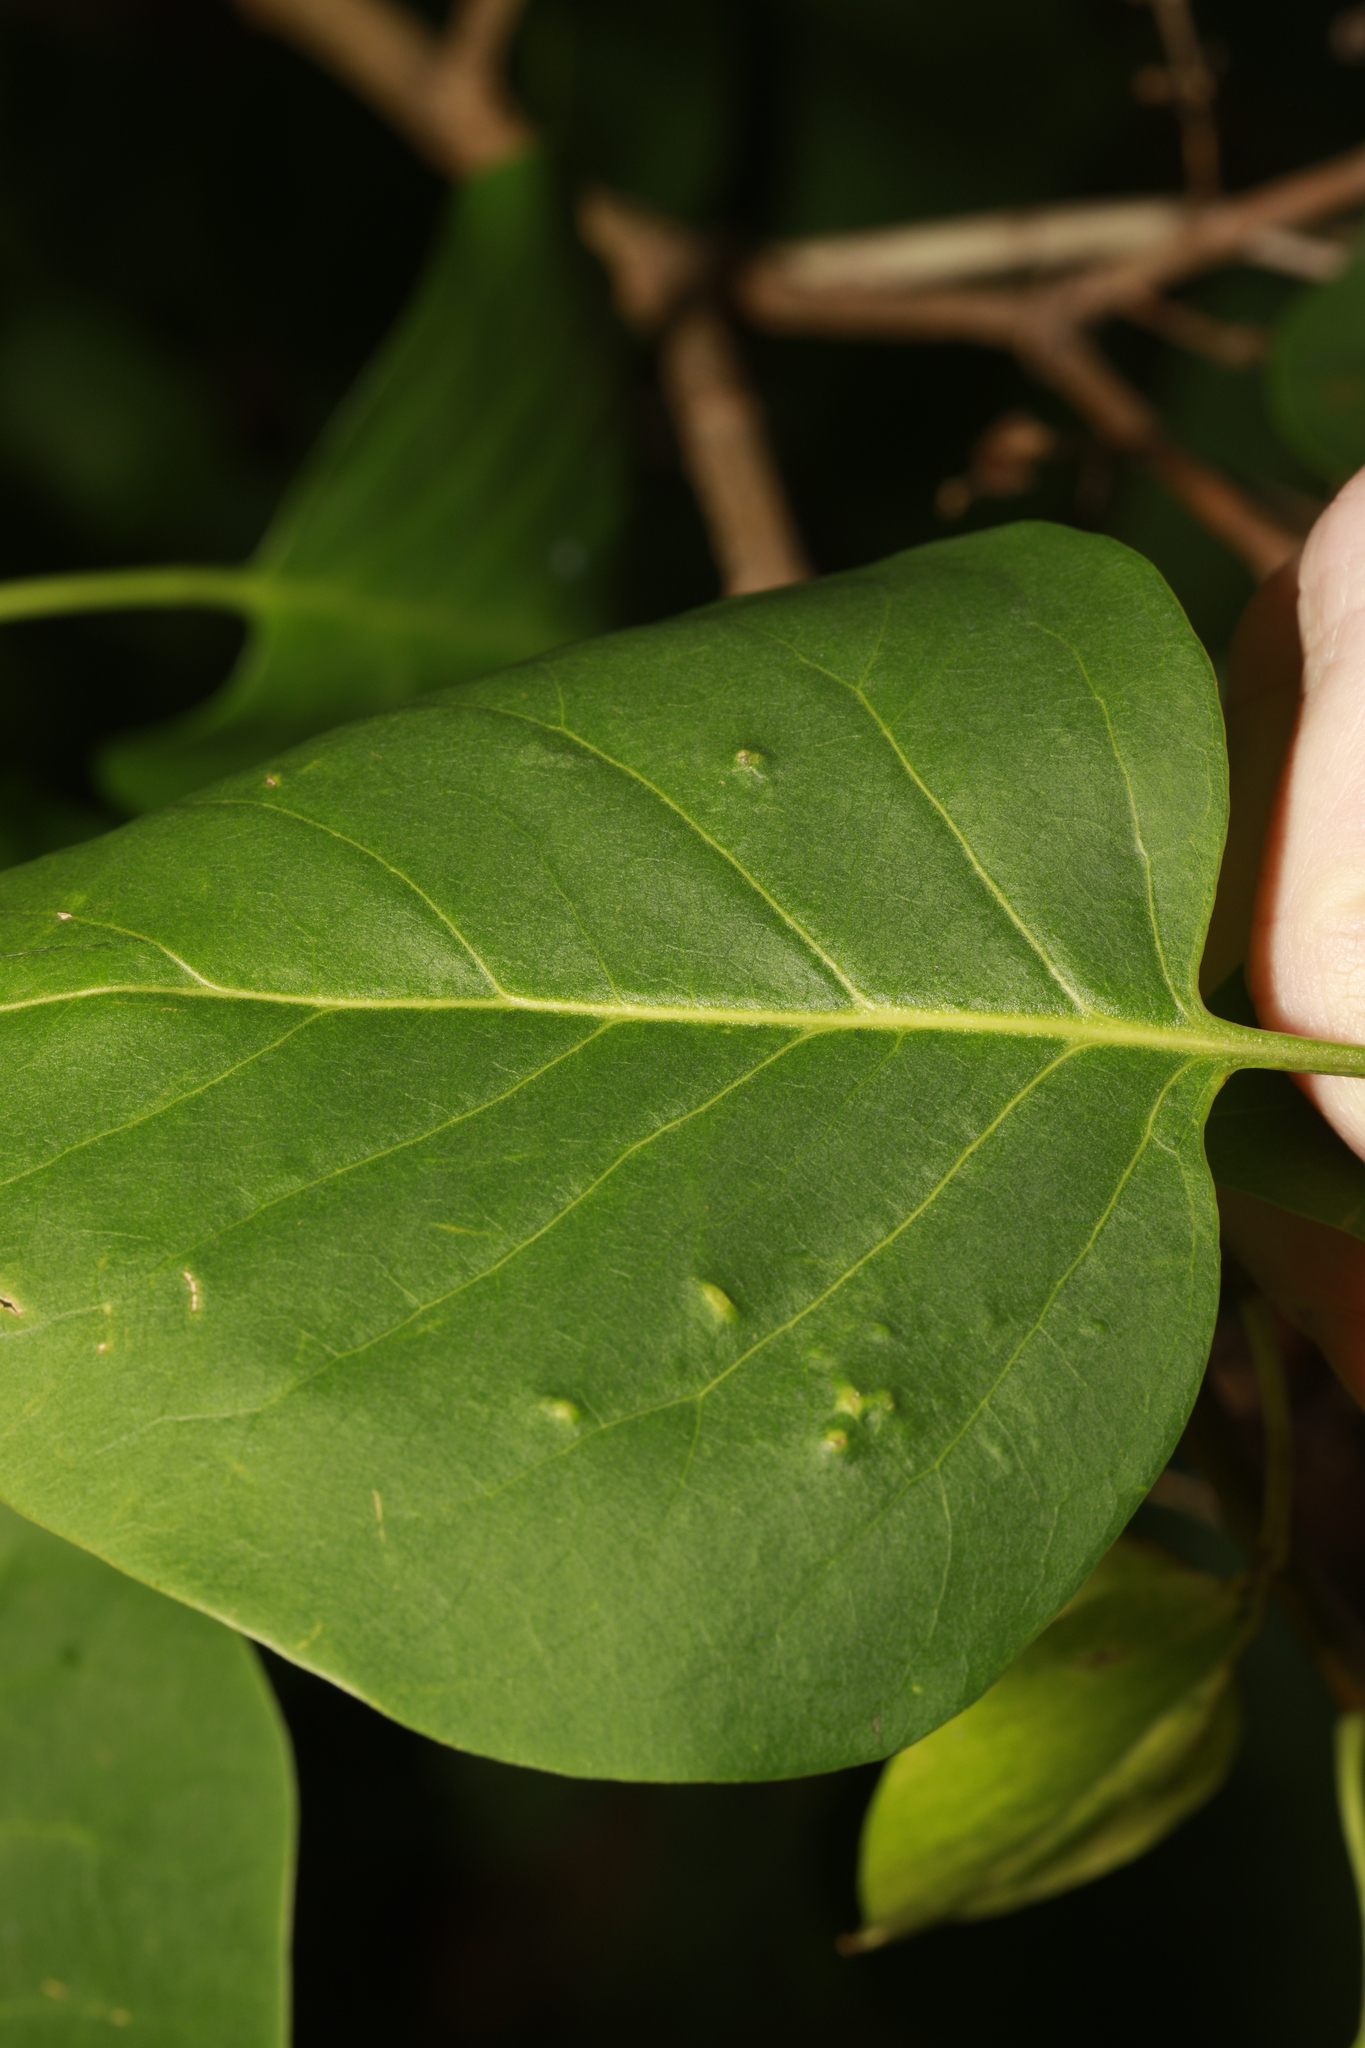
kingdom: Plantae
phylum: Tracheophyta
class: Magnoliopsida
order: Lamiales
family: Oleaceae
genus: Syringa
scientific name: Syringa vulgaris
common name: Common lilac
